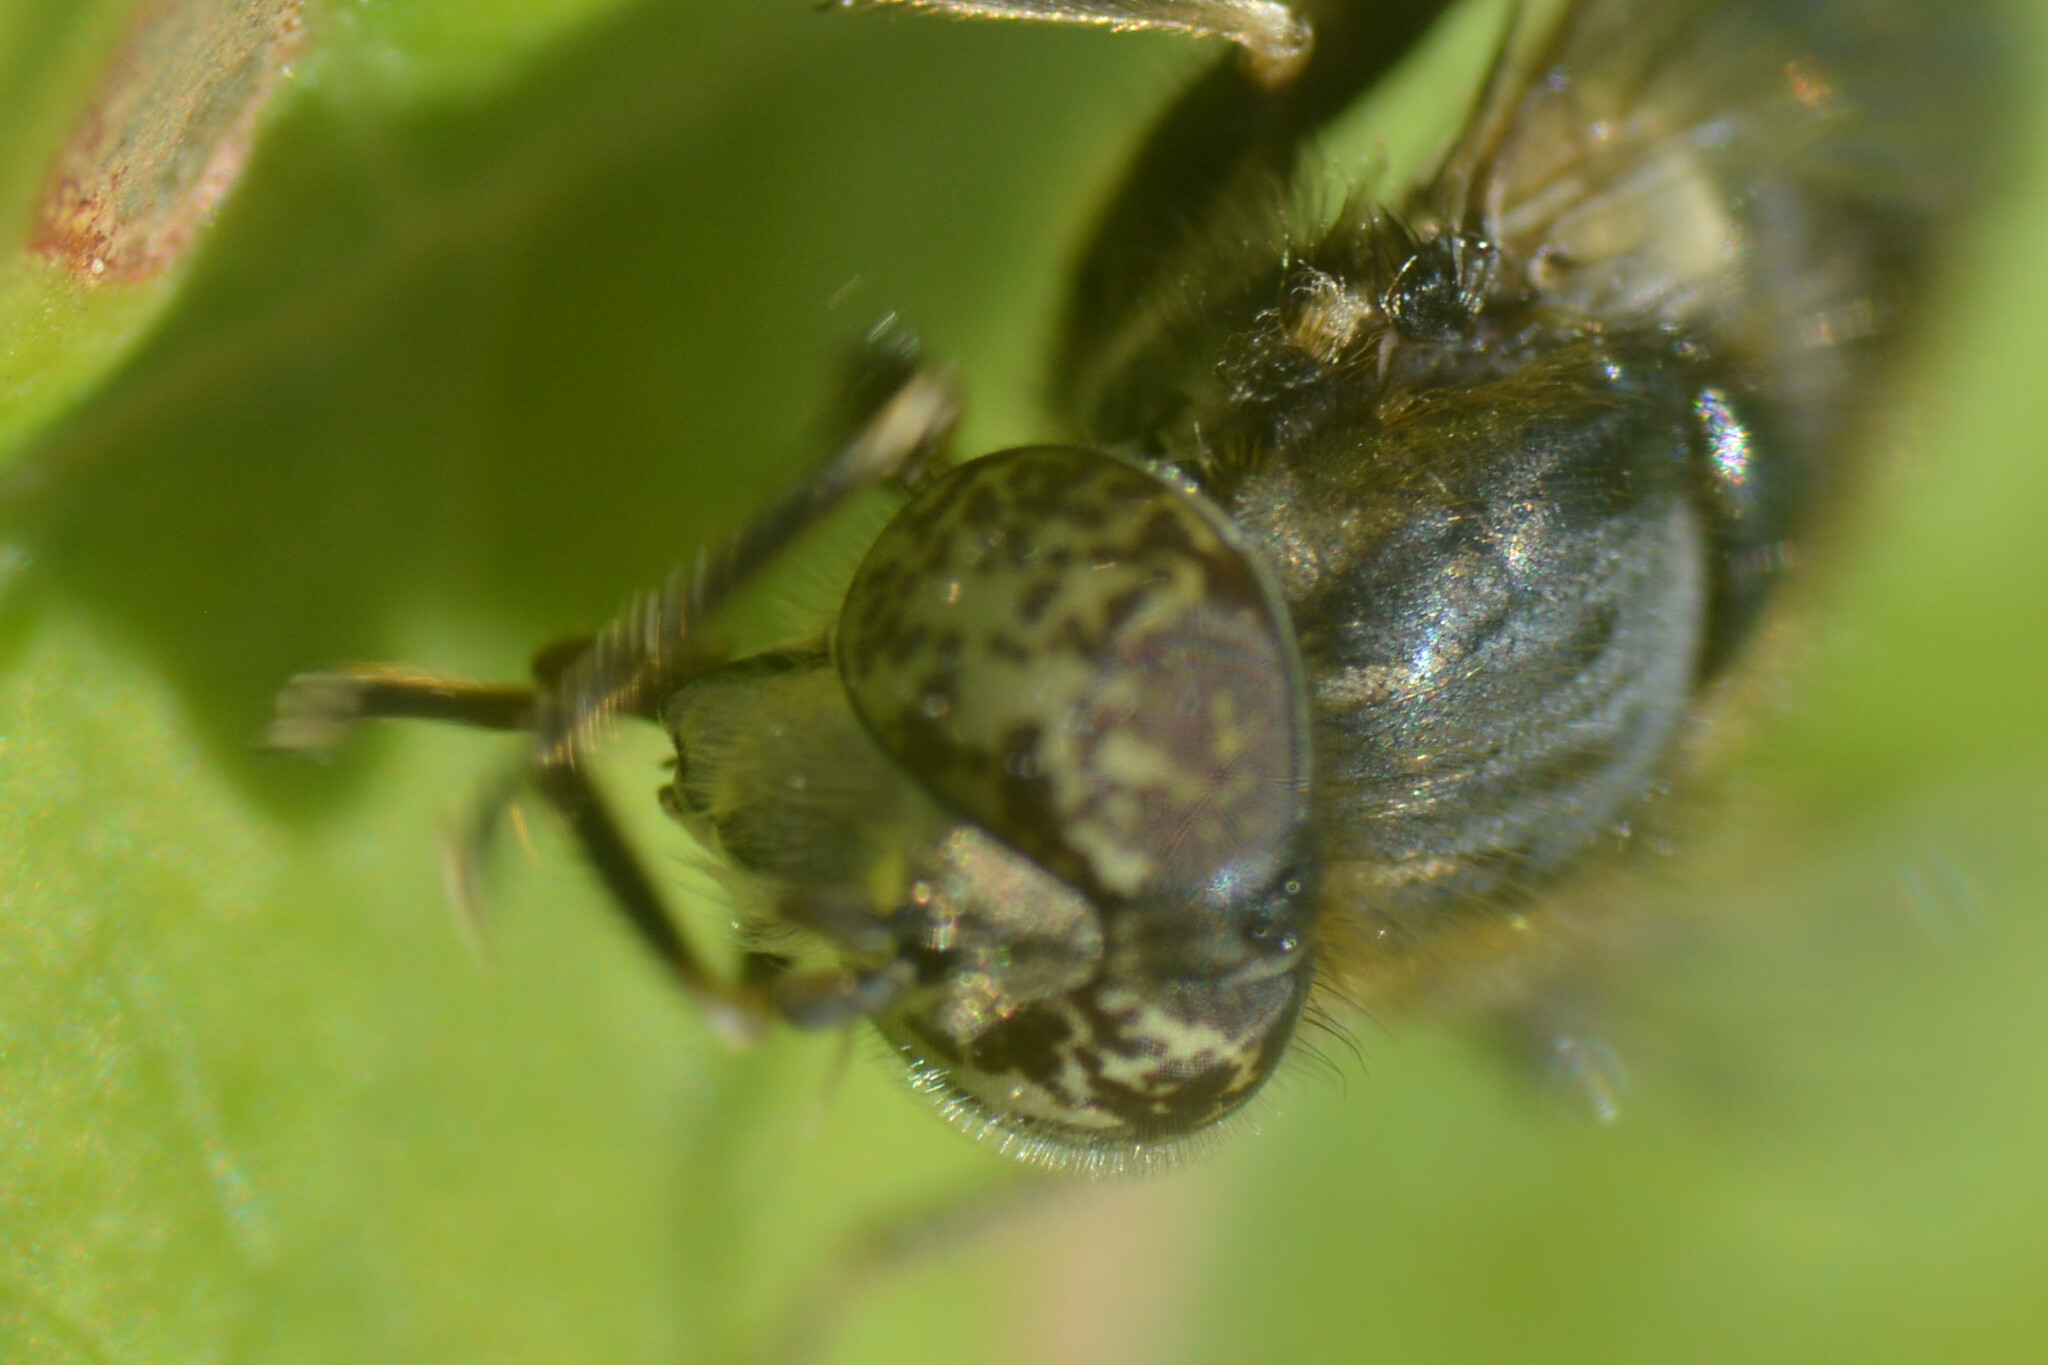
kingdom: Animalia
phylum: Arthropoda
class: Insecta
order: Diptera
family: Syrphidae
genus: Eristalinus
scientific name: Eristalinus sepulchralis
